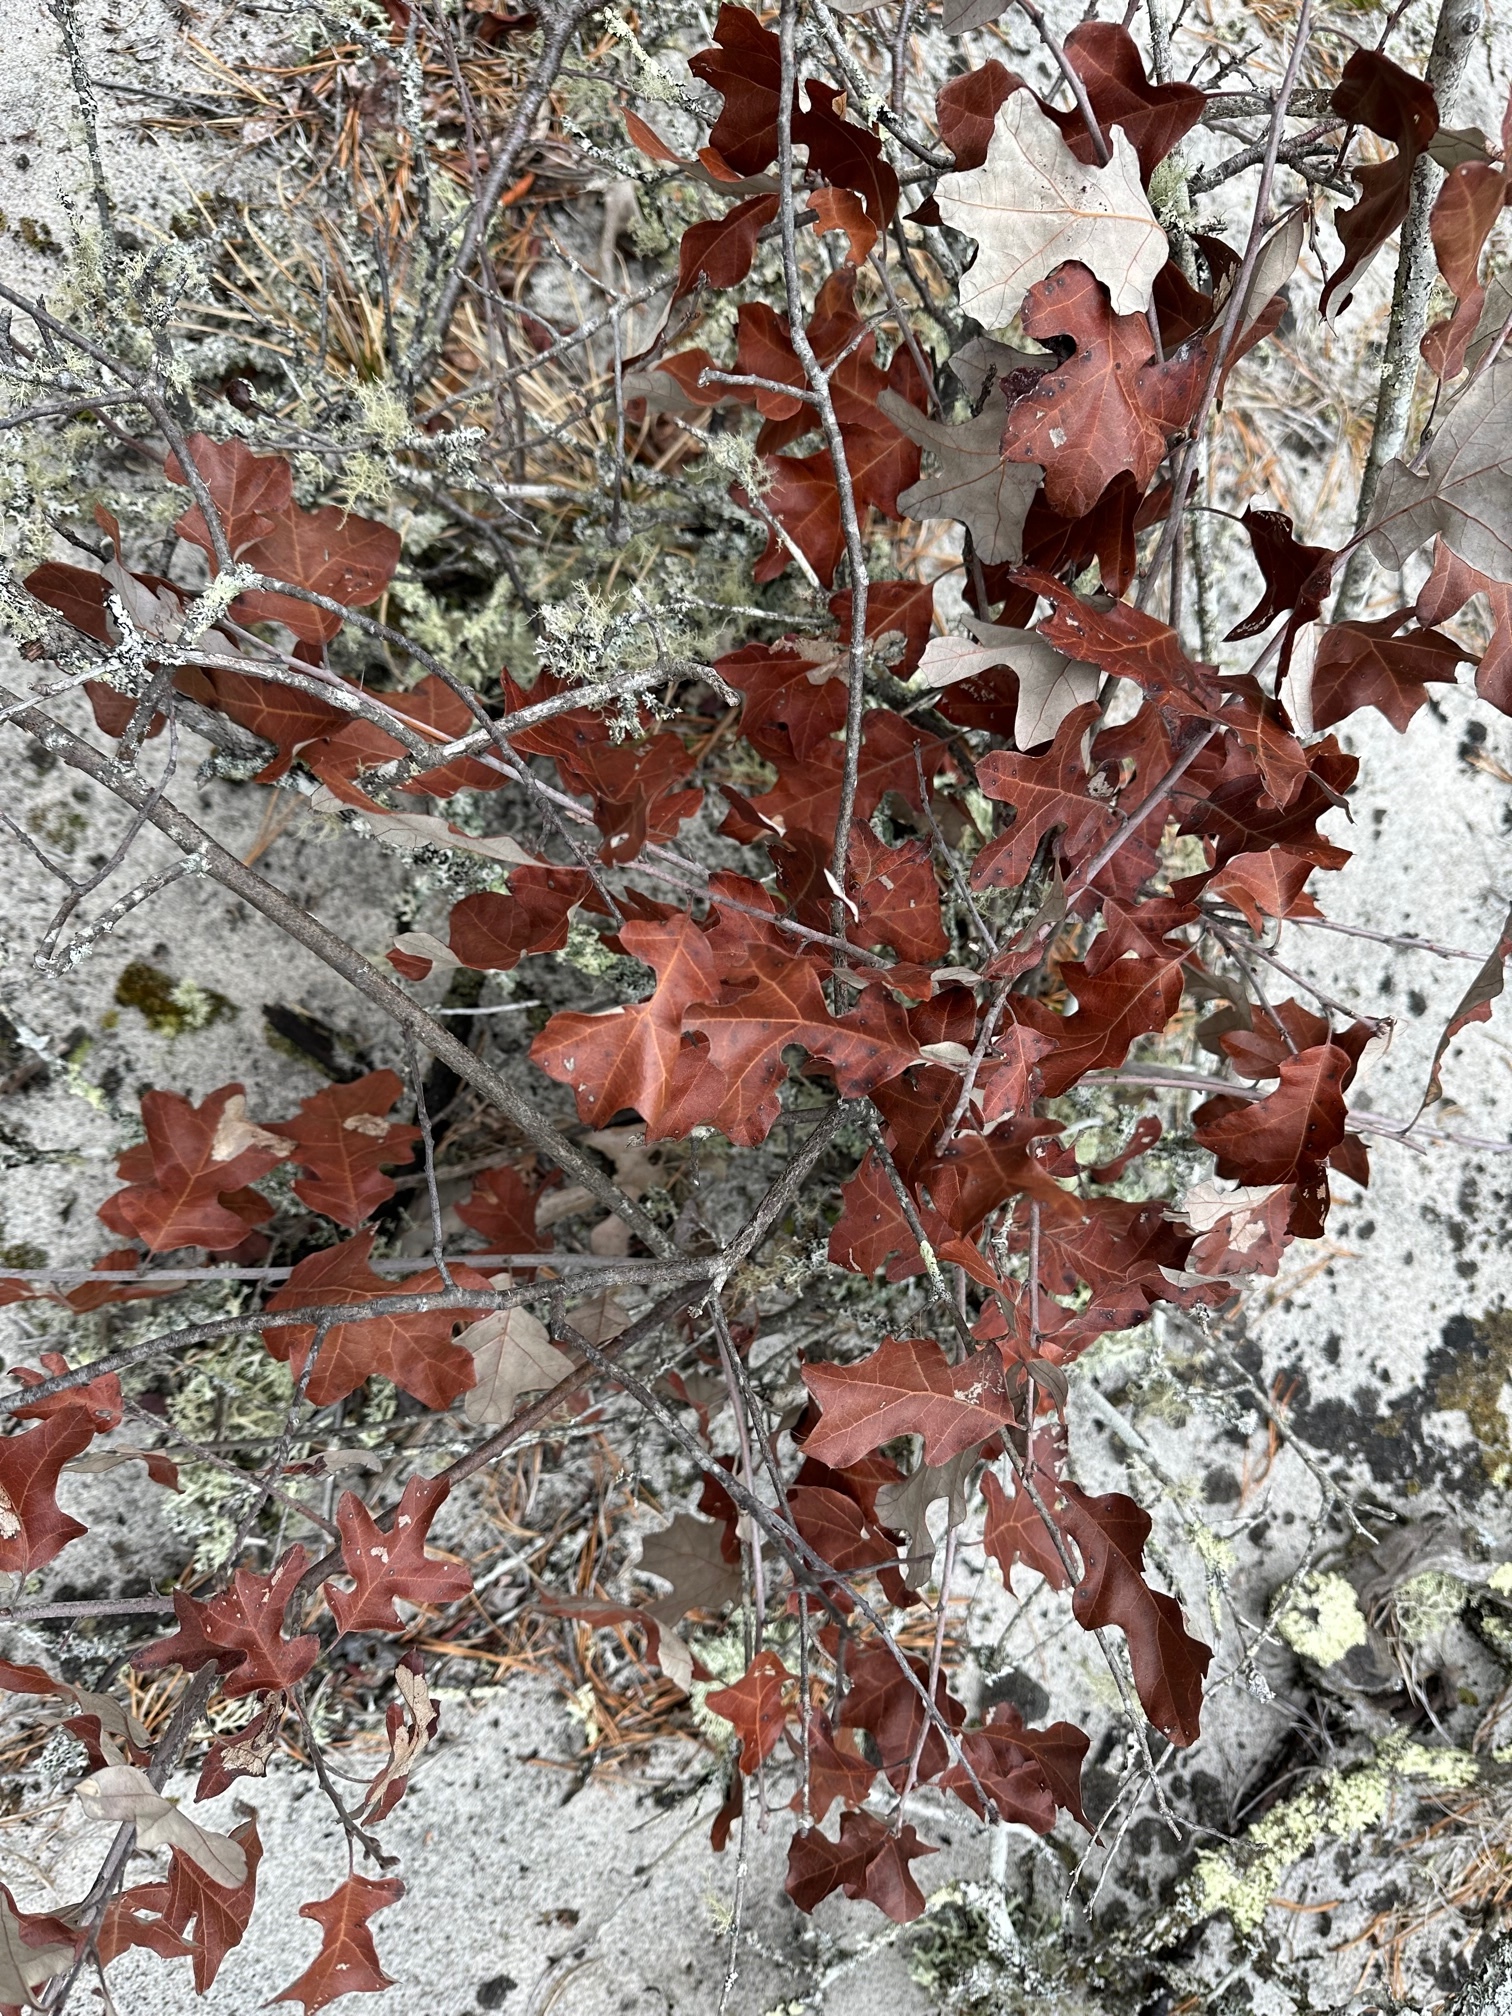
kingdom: Plantae
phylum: Tracheophyta
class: Magnoliopsida
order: Fagales
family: Fagaceae
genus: Quercus
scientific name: Quercus ilicifolia
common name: Bear oak
